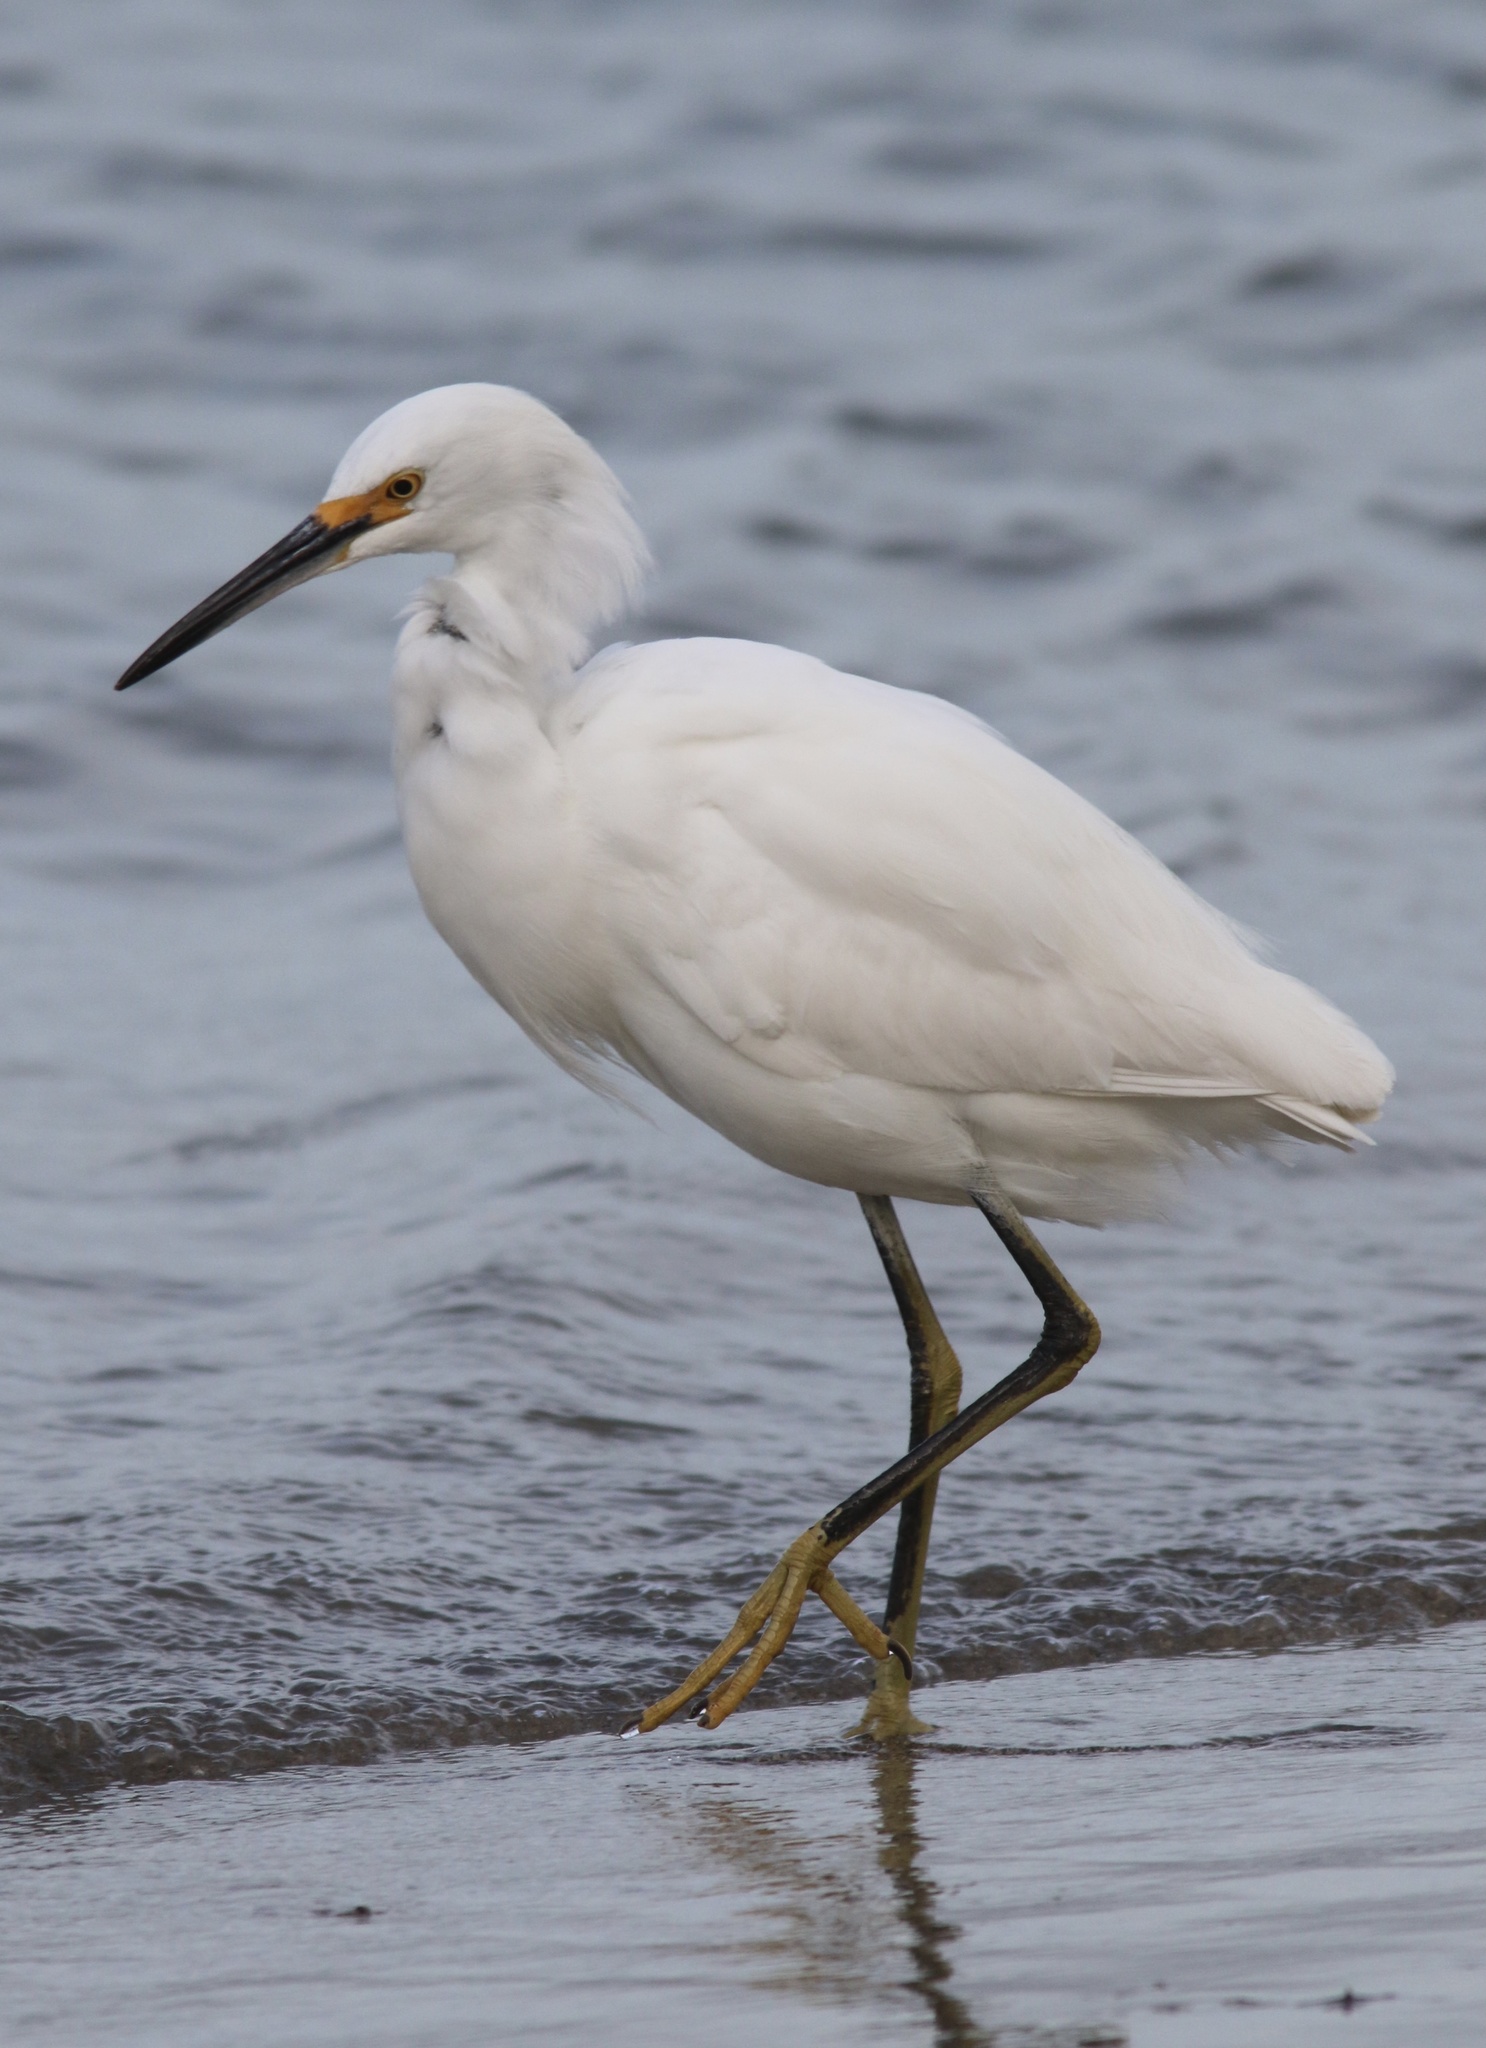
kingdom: Animalia
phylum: Chordata
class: Aves
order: Pelecaniformes
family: Ardeidae
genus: Egretta
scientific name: Egretta thula
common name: Snowy egret
